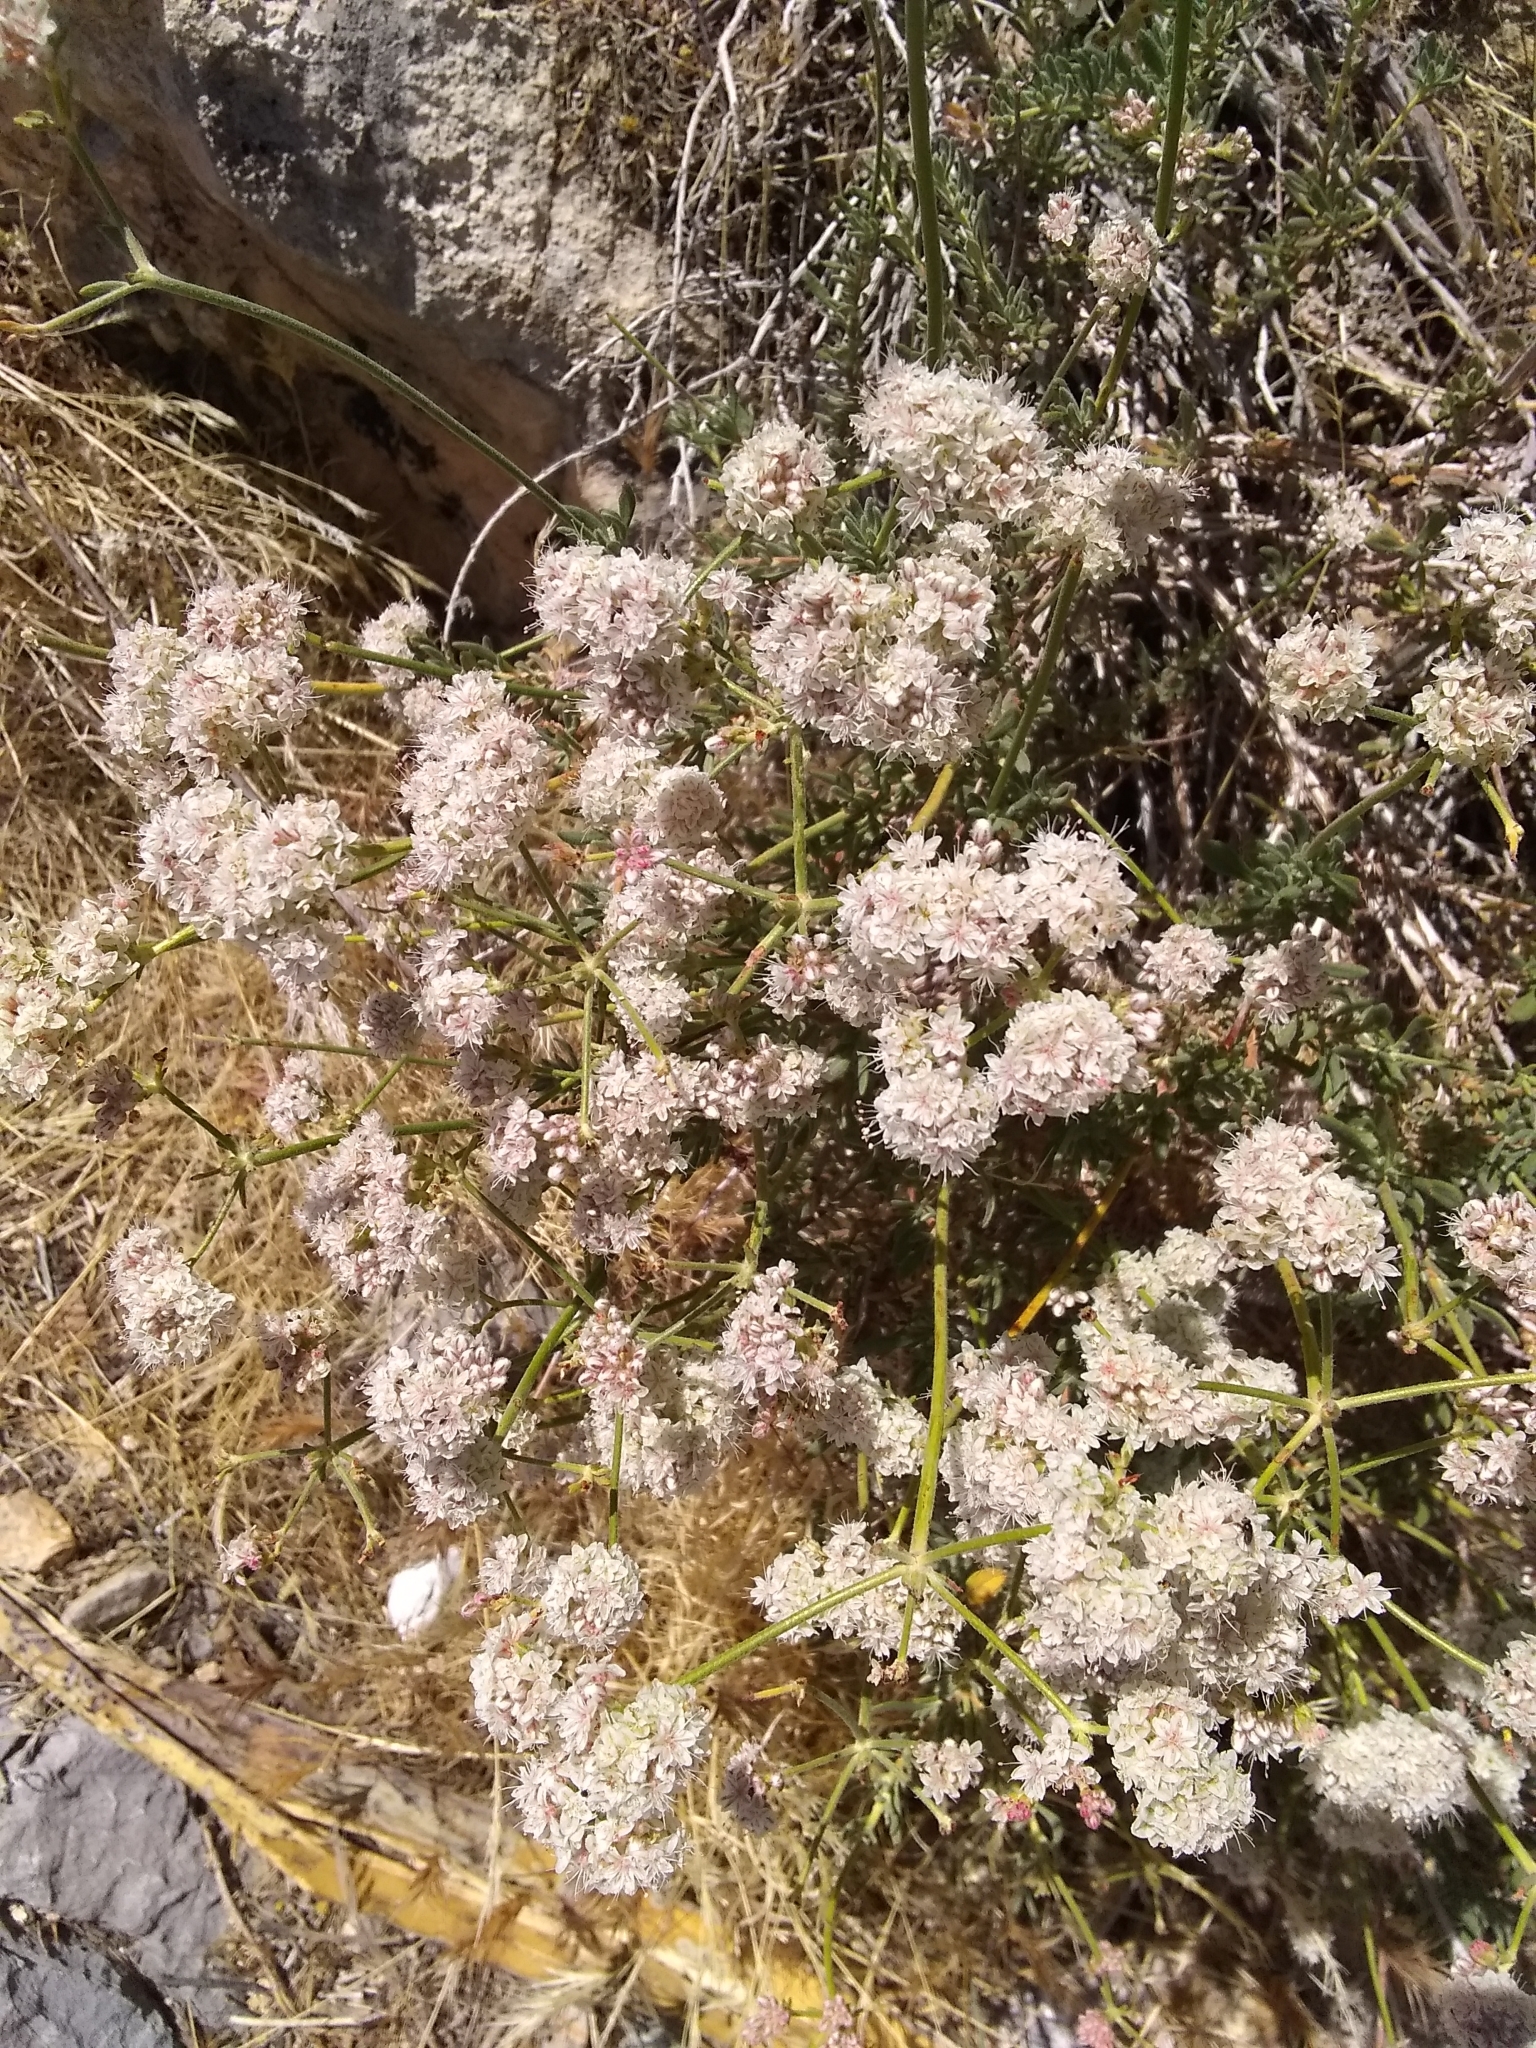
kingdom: Plantae
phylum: Tracheophyta
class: Magnoliopsida
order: Caryophyllales
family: Polygonaceae
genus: Eriogonum
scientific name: Eriogonum fasciculatum
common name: California wild buckwheat
